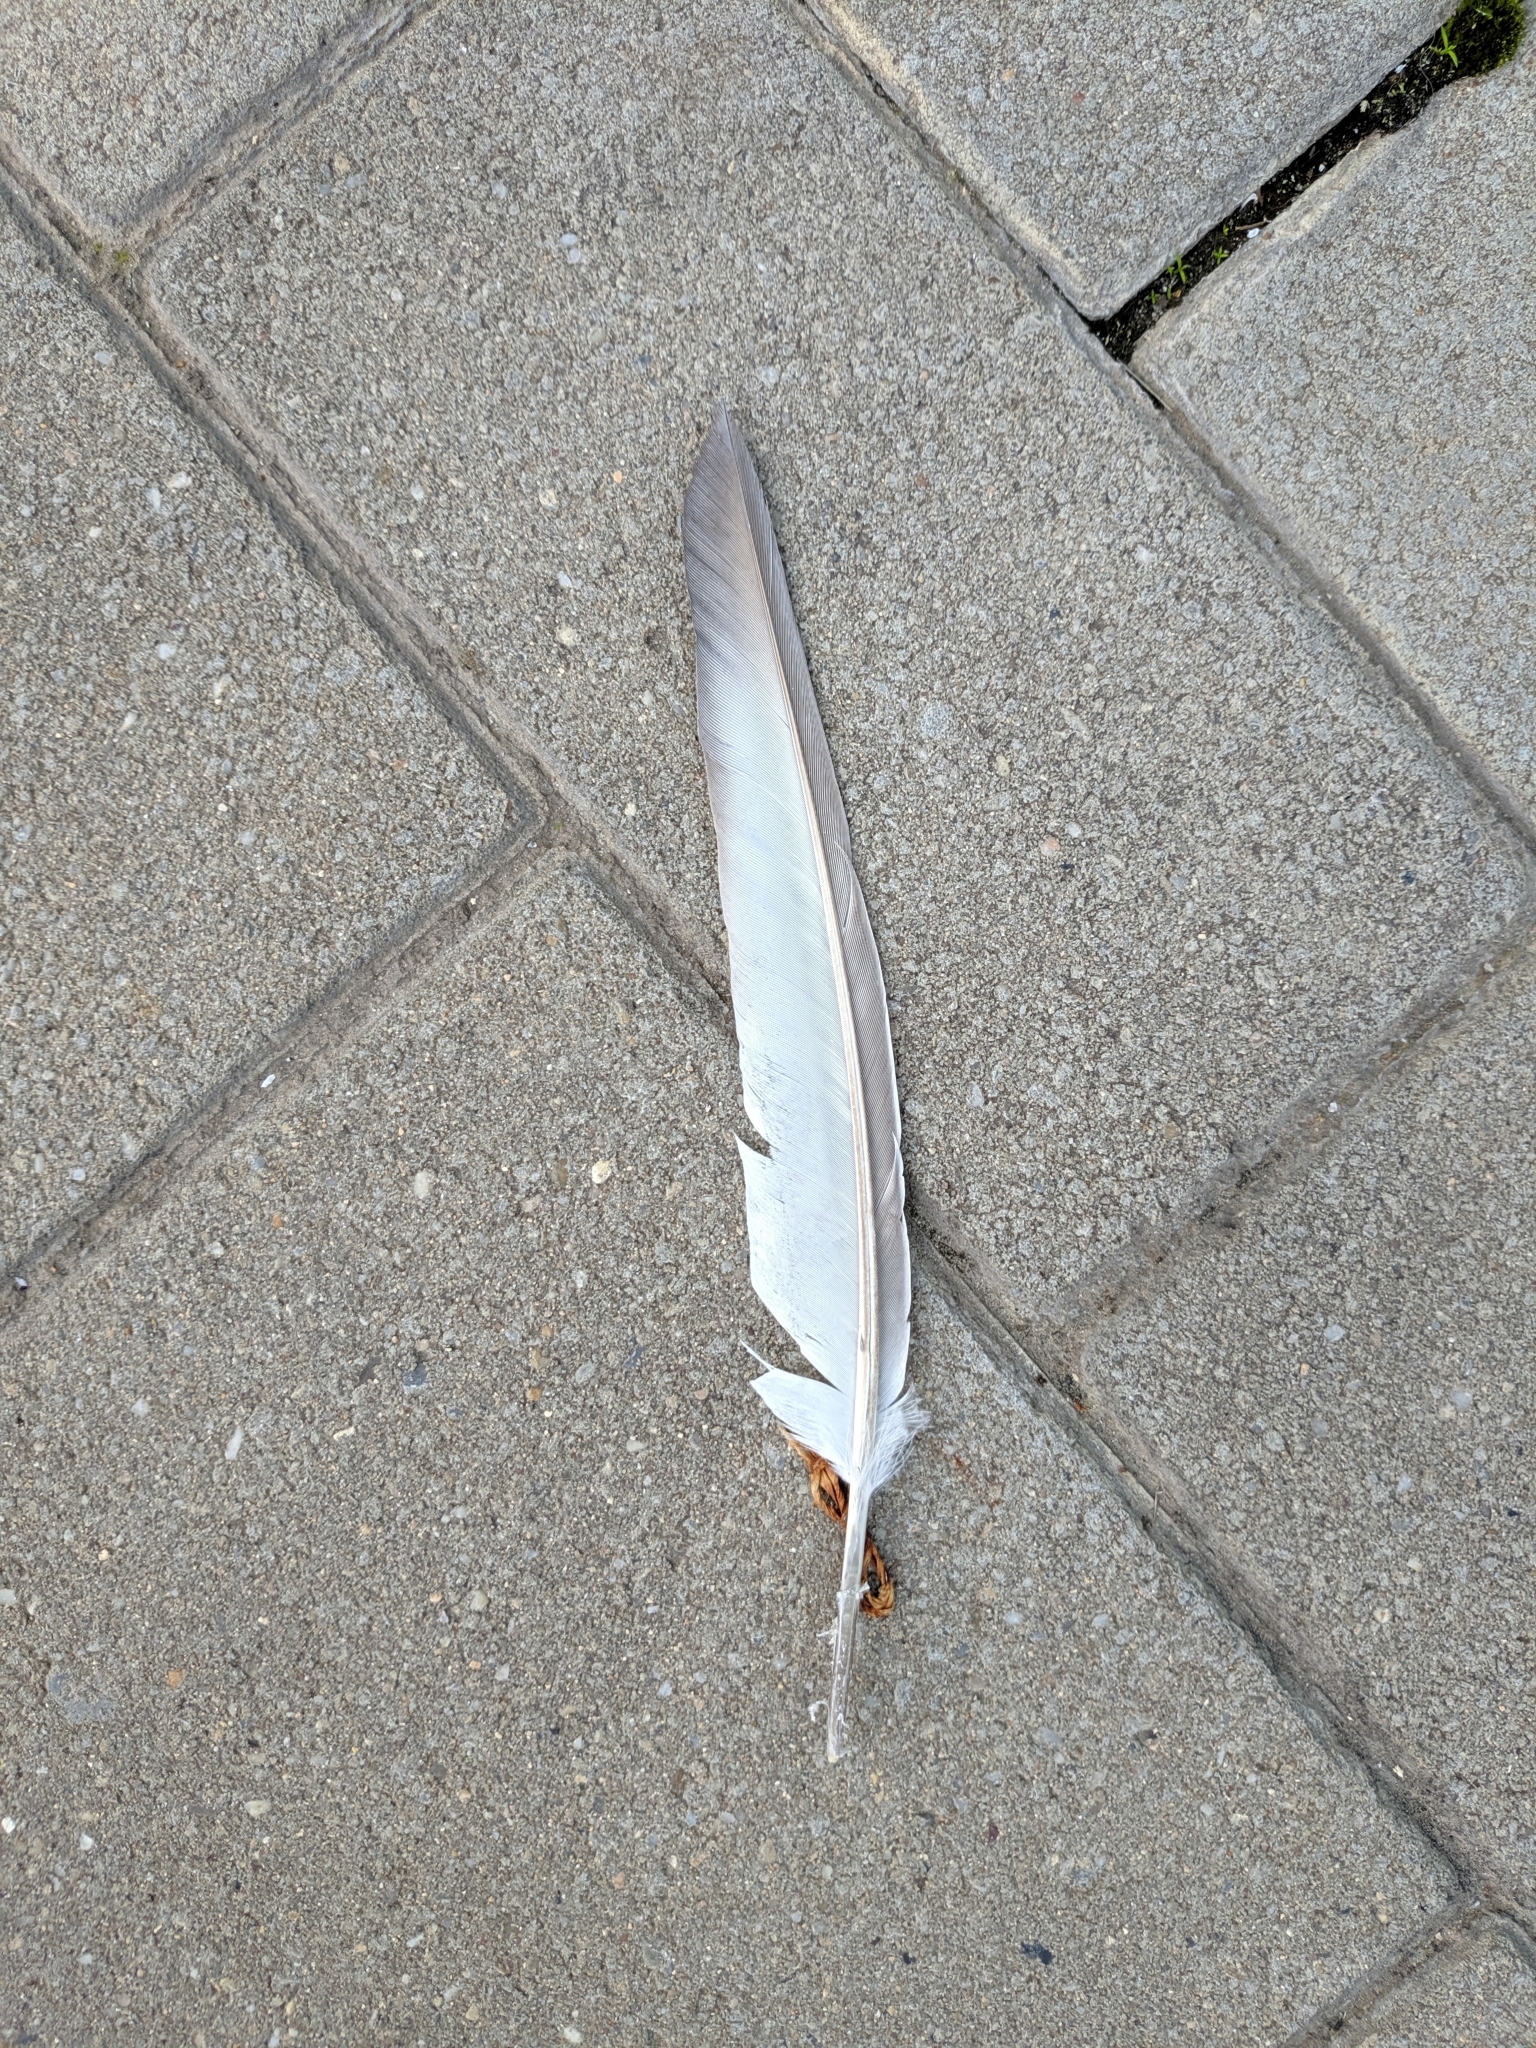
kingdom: Animalia
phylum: Chordata
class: Aves
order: Columbiformes
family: Columbidae
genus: Columba
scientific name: Columba livia
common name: Rock pigeon
